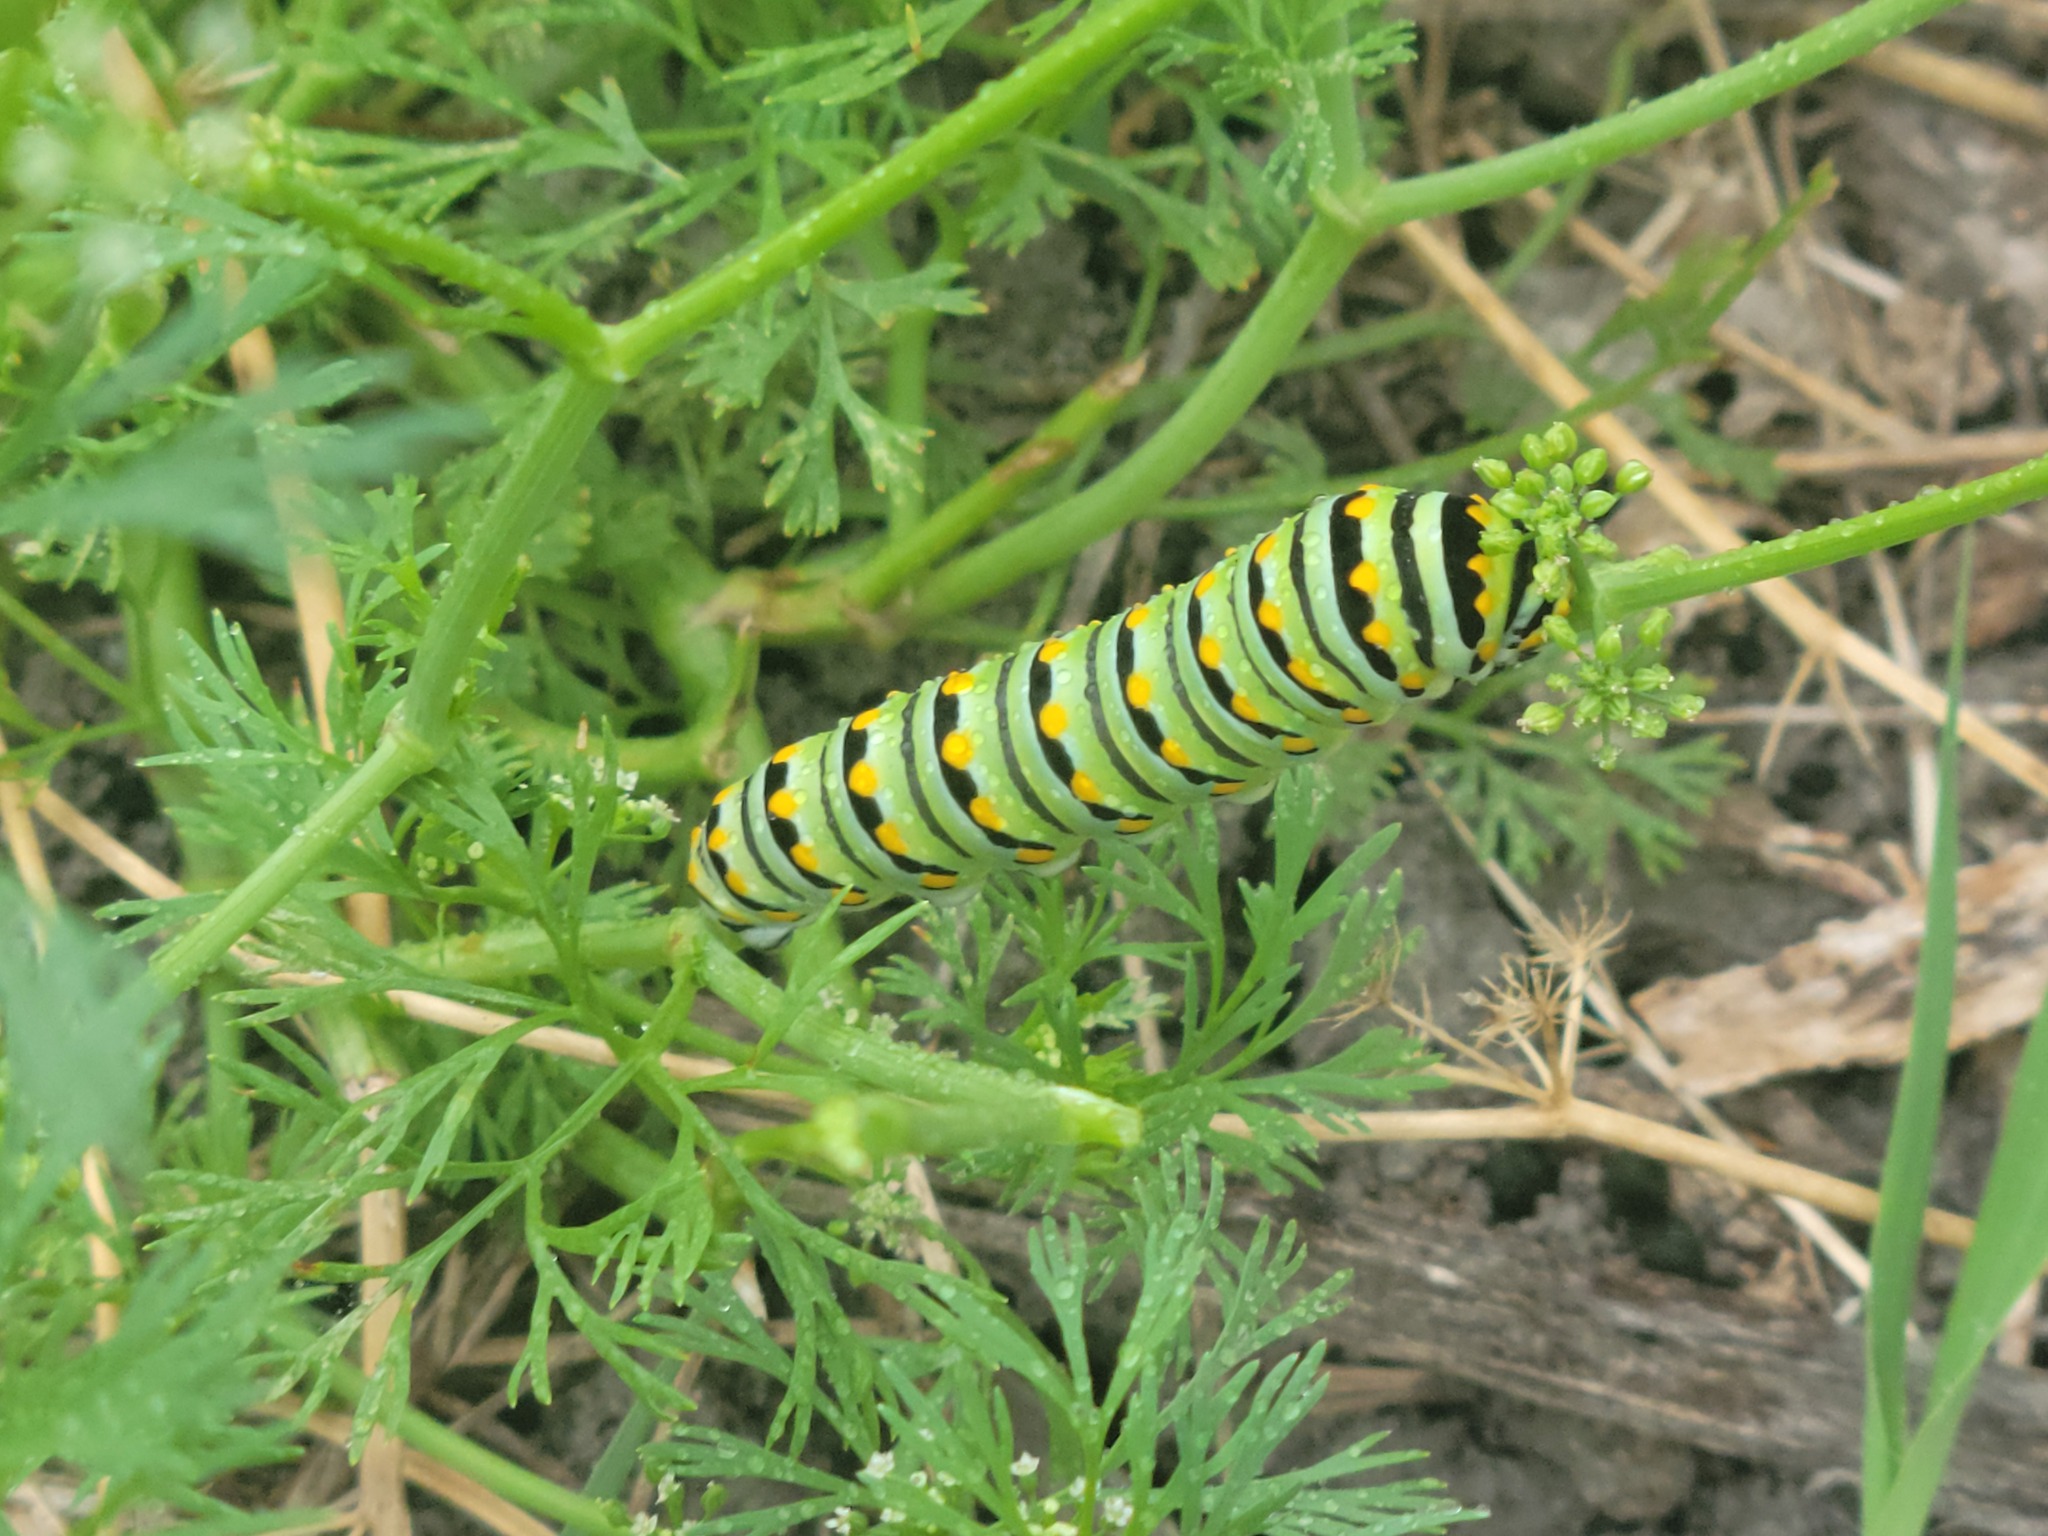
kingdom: Animalia
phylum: Arthropoda
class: Insecta
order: Lepidoptera
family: Papilionidae
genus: Papilio
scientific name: Papilio polyxenes
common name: Black swallowtail
